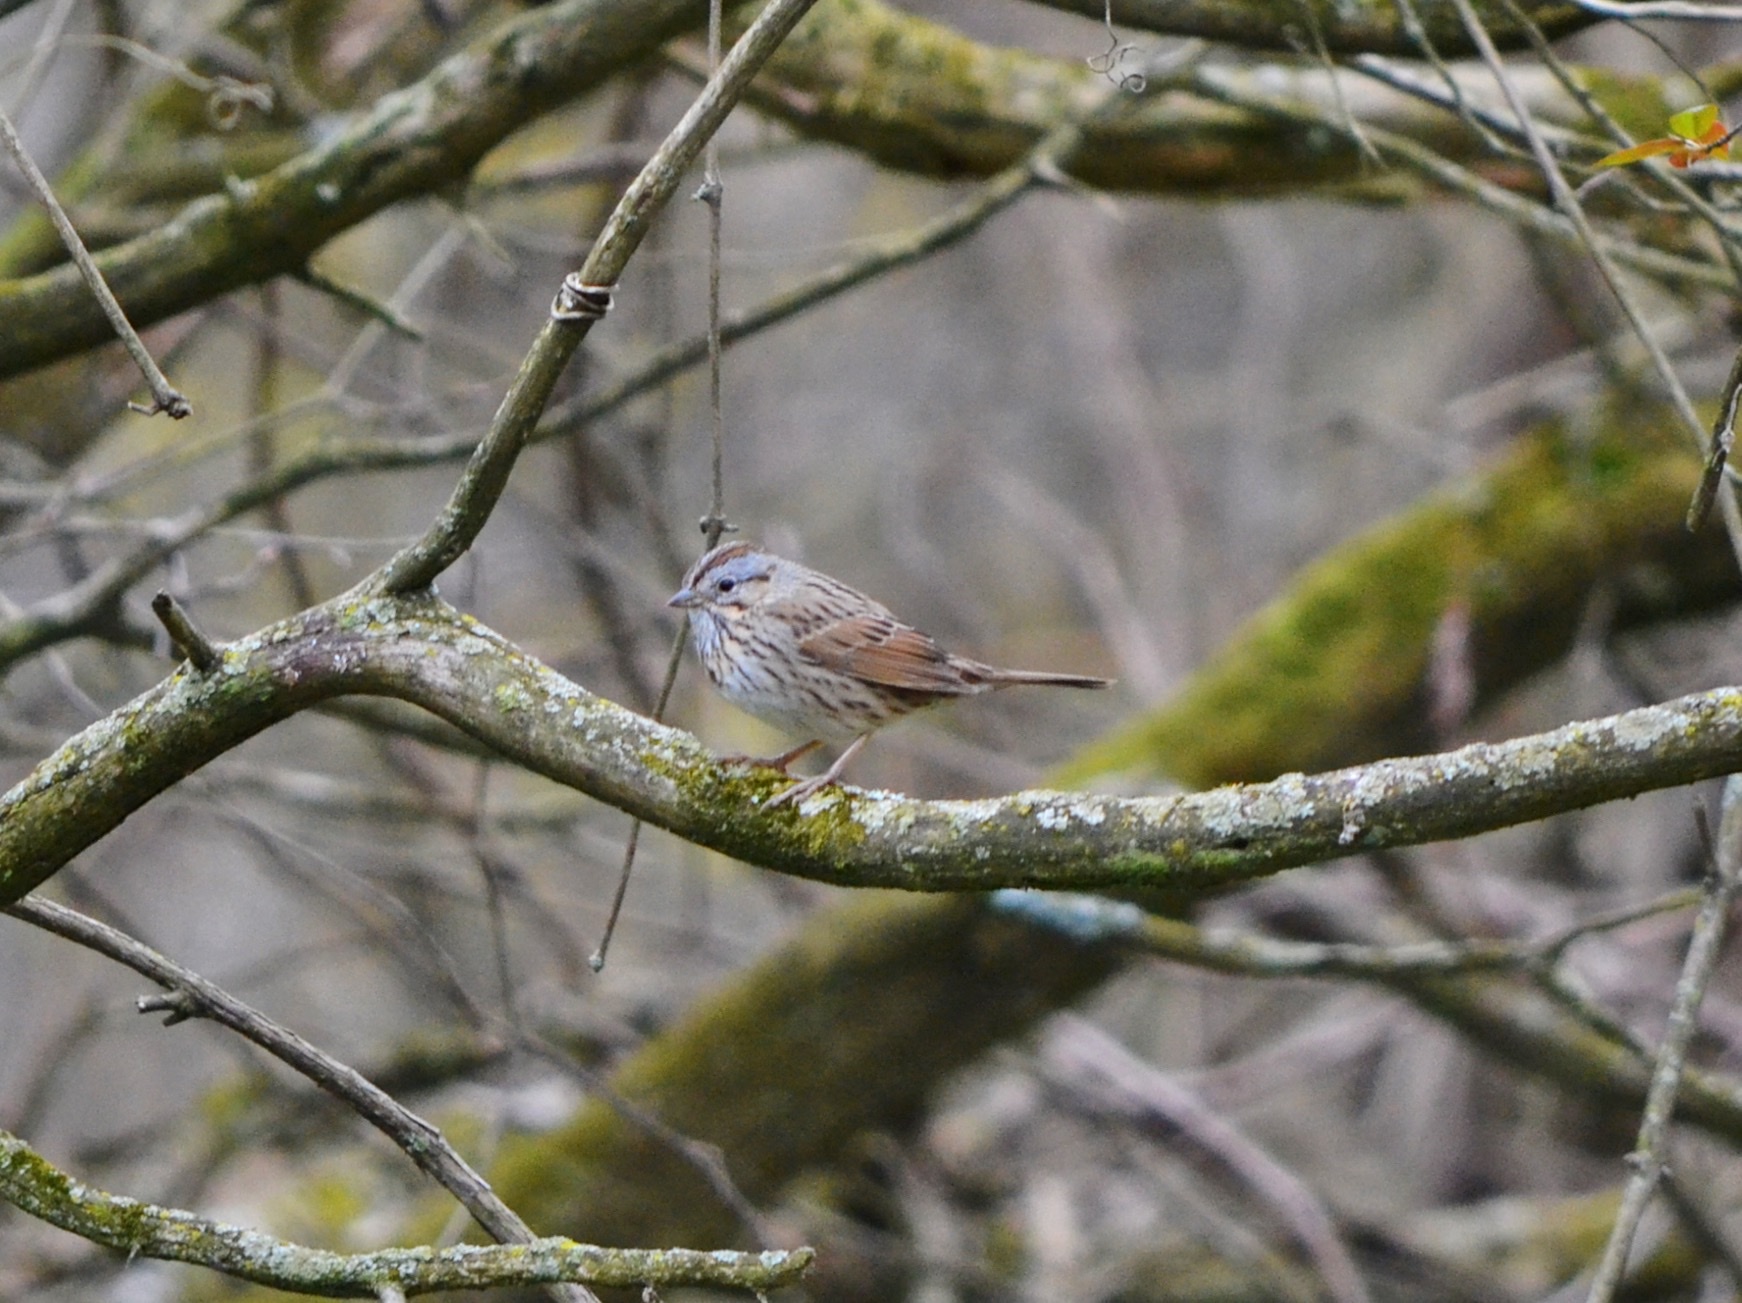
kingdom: Animalia
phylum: Chordata
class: Aves
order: Passeriformes
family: Passerellidae
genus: Melospiza
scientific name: Melospiza lincolnii
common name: Lincoln's sparrow
